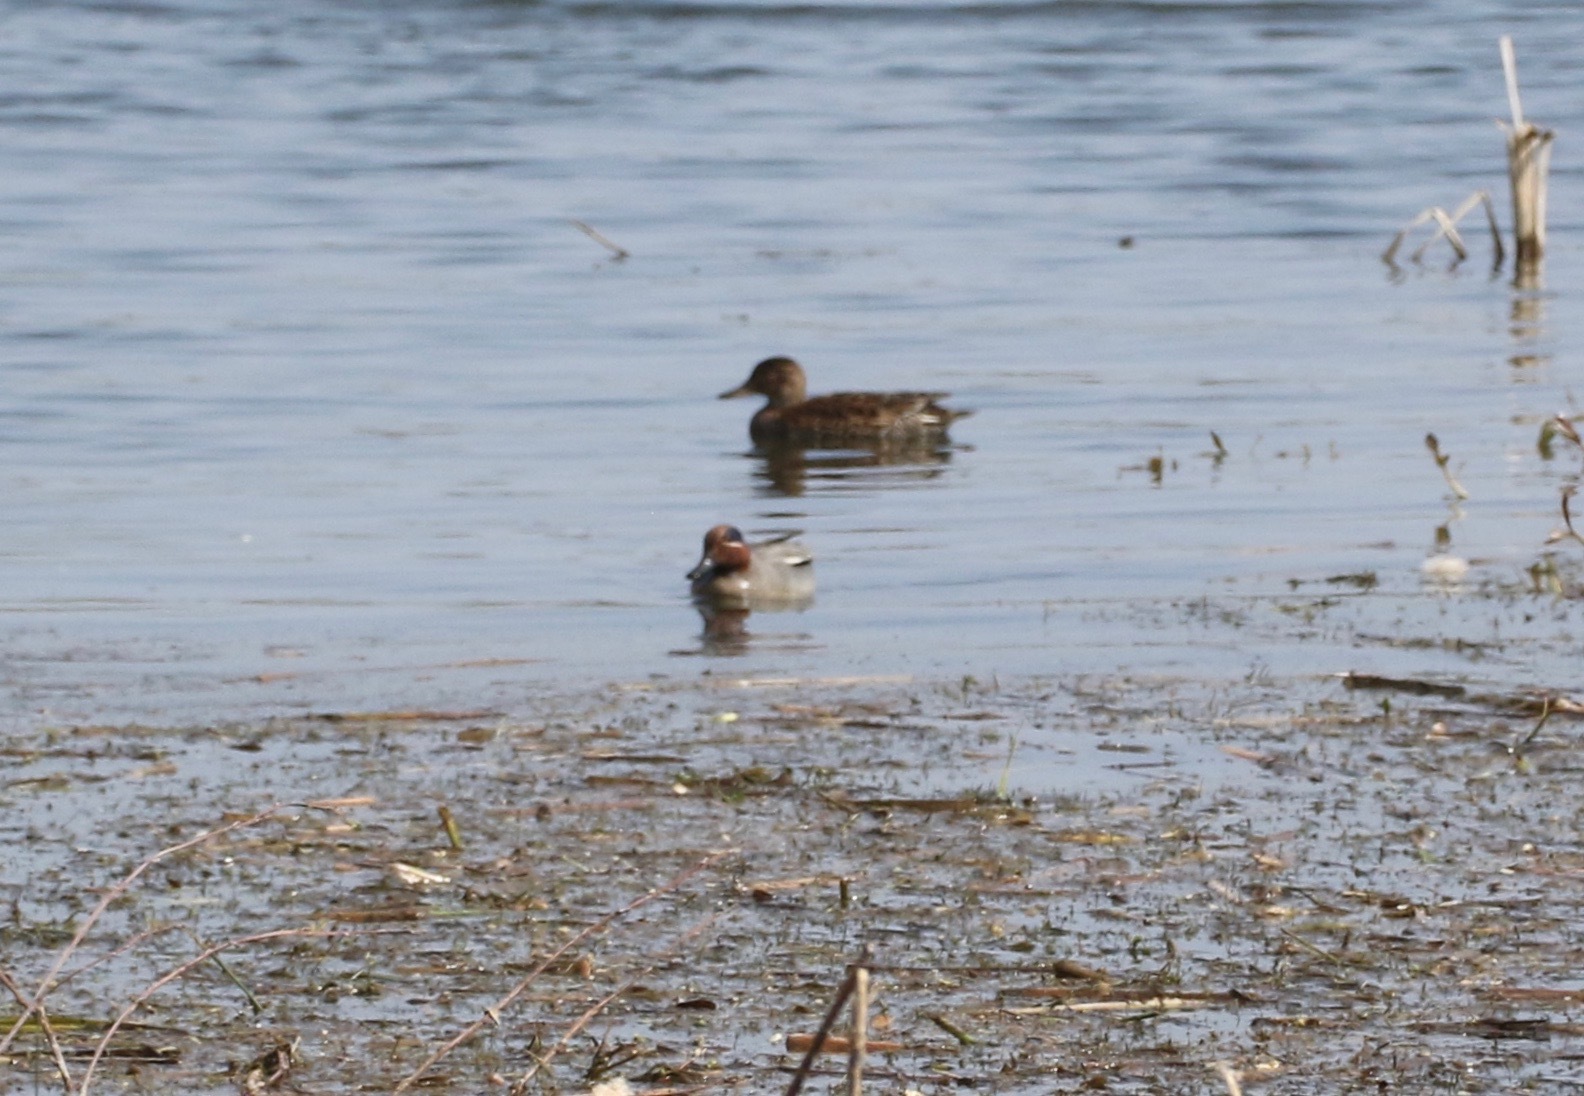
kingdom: Animalia
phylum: Chordata
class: Aves
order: Anseriformes
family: Anatidae
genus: Anas
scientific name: Anas crecca
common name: Eurasian teal
